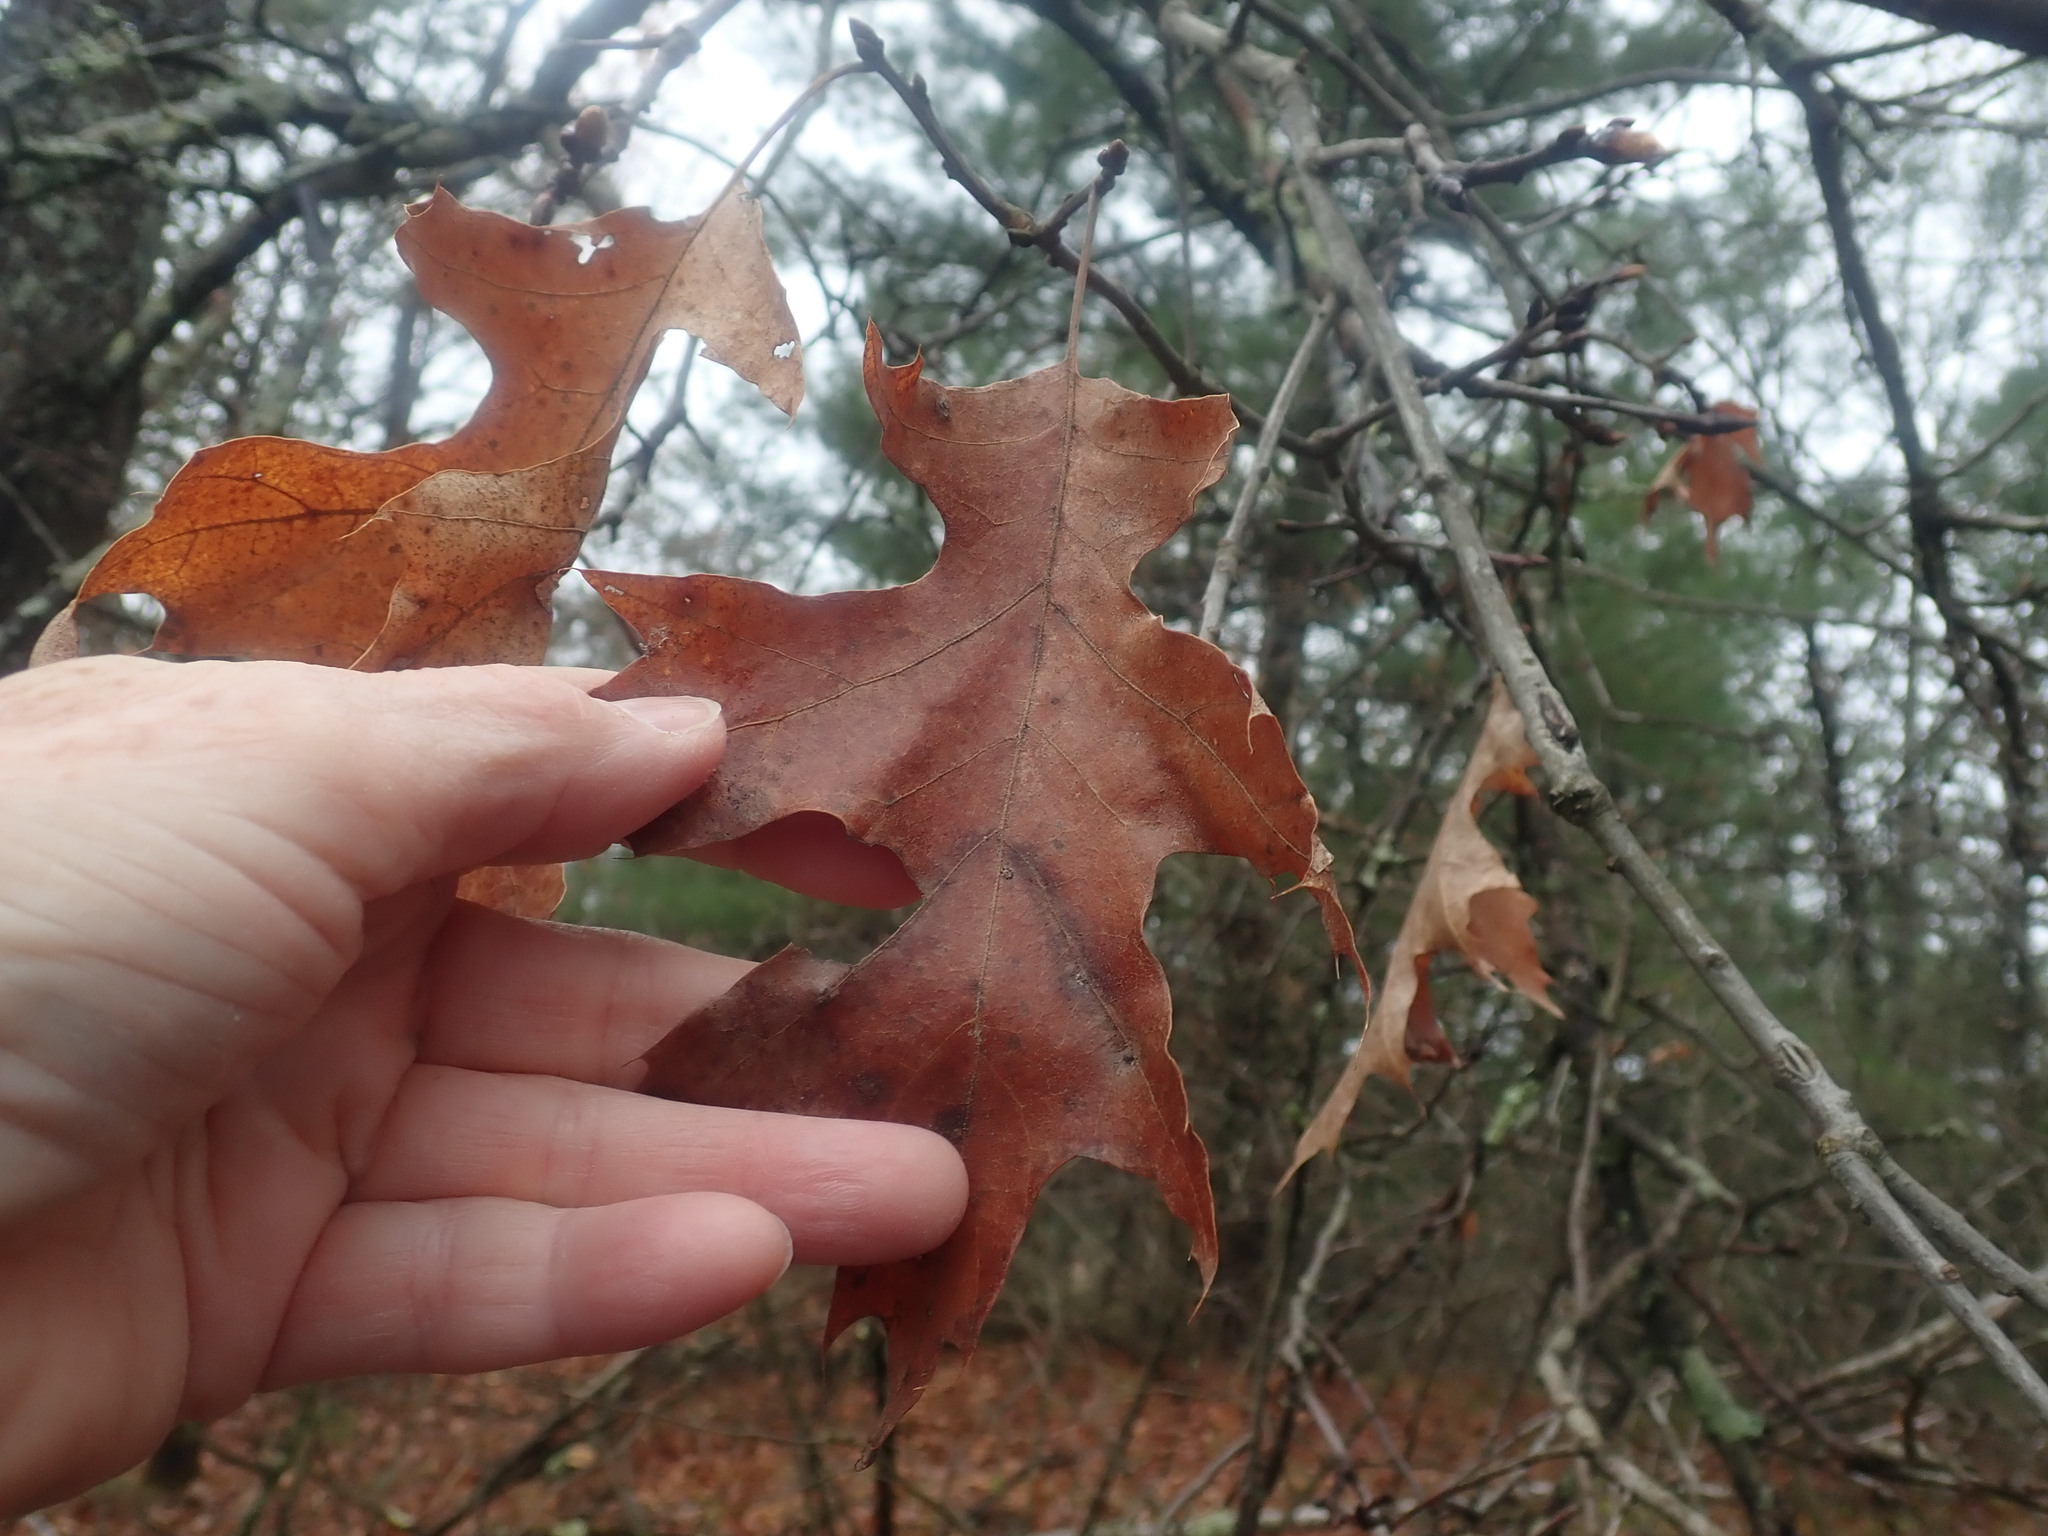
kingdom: Plantae
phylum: Tracheophyta
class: Magnoliopsida
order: Fagales
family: Fagaceae
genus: Quercus
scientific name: Quercus velutina
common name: Black oak
